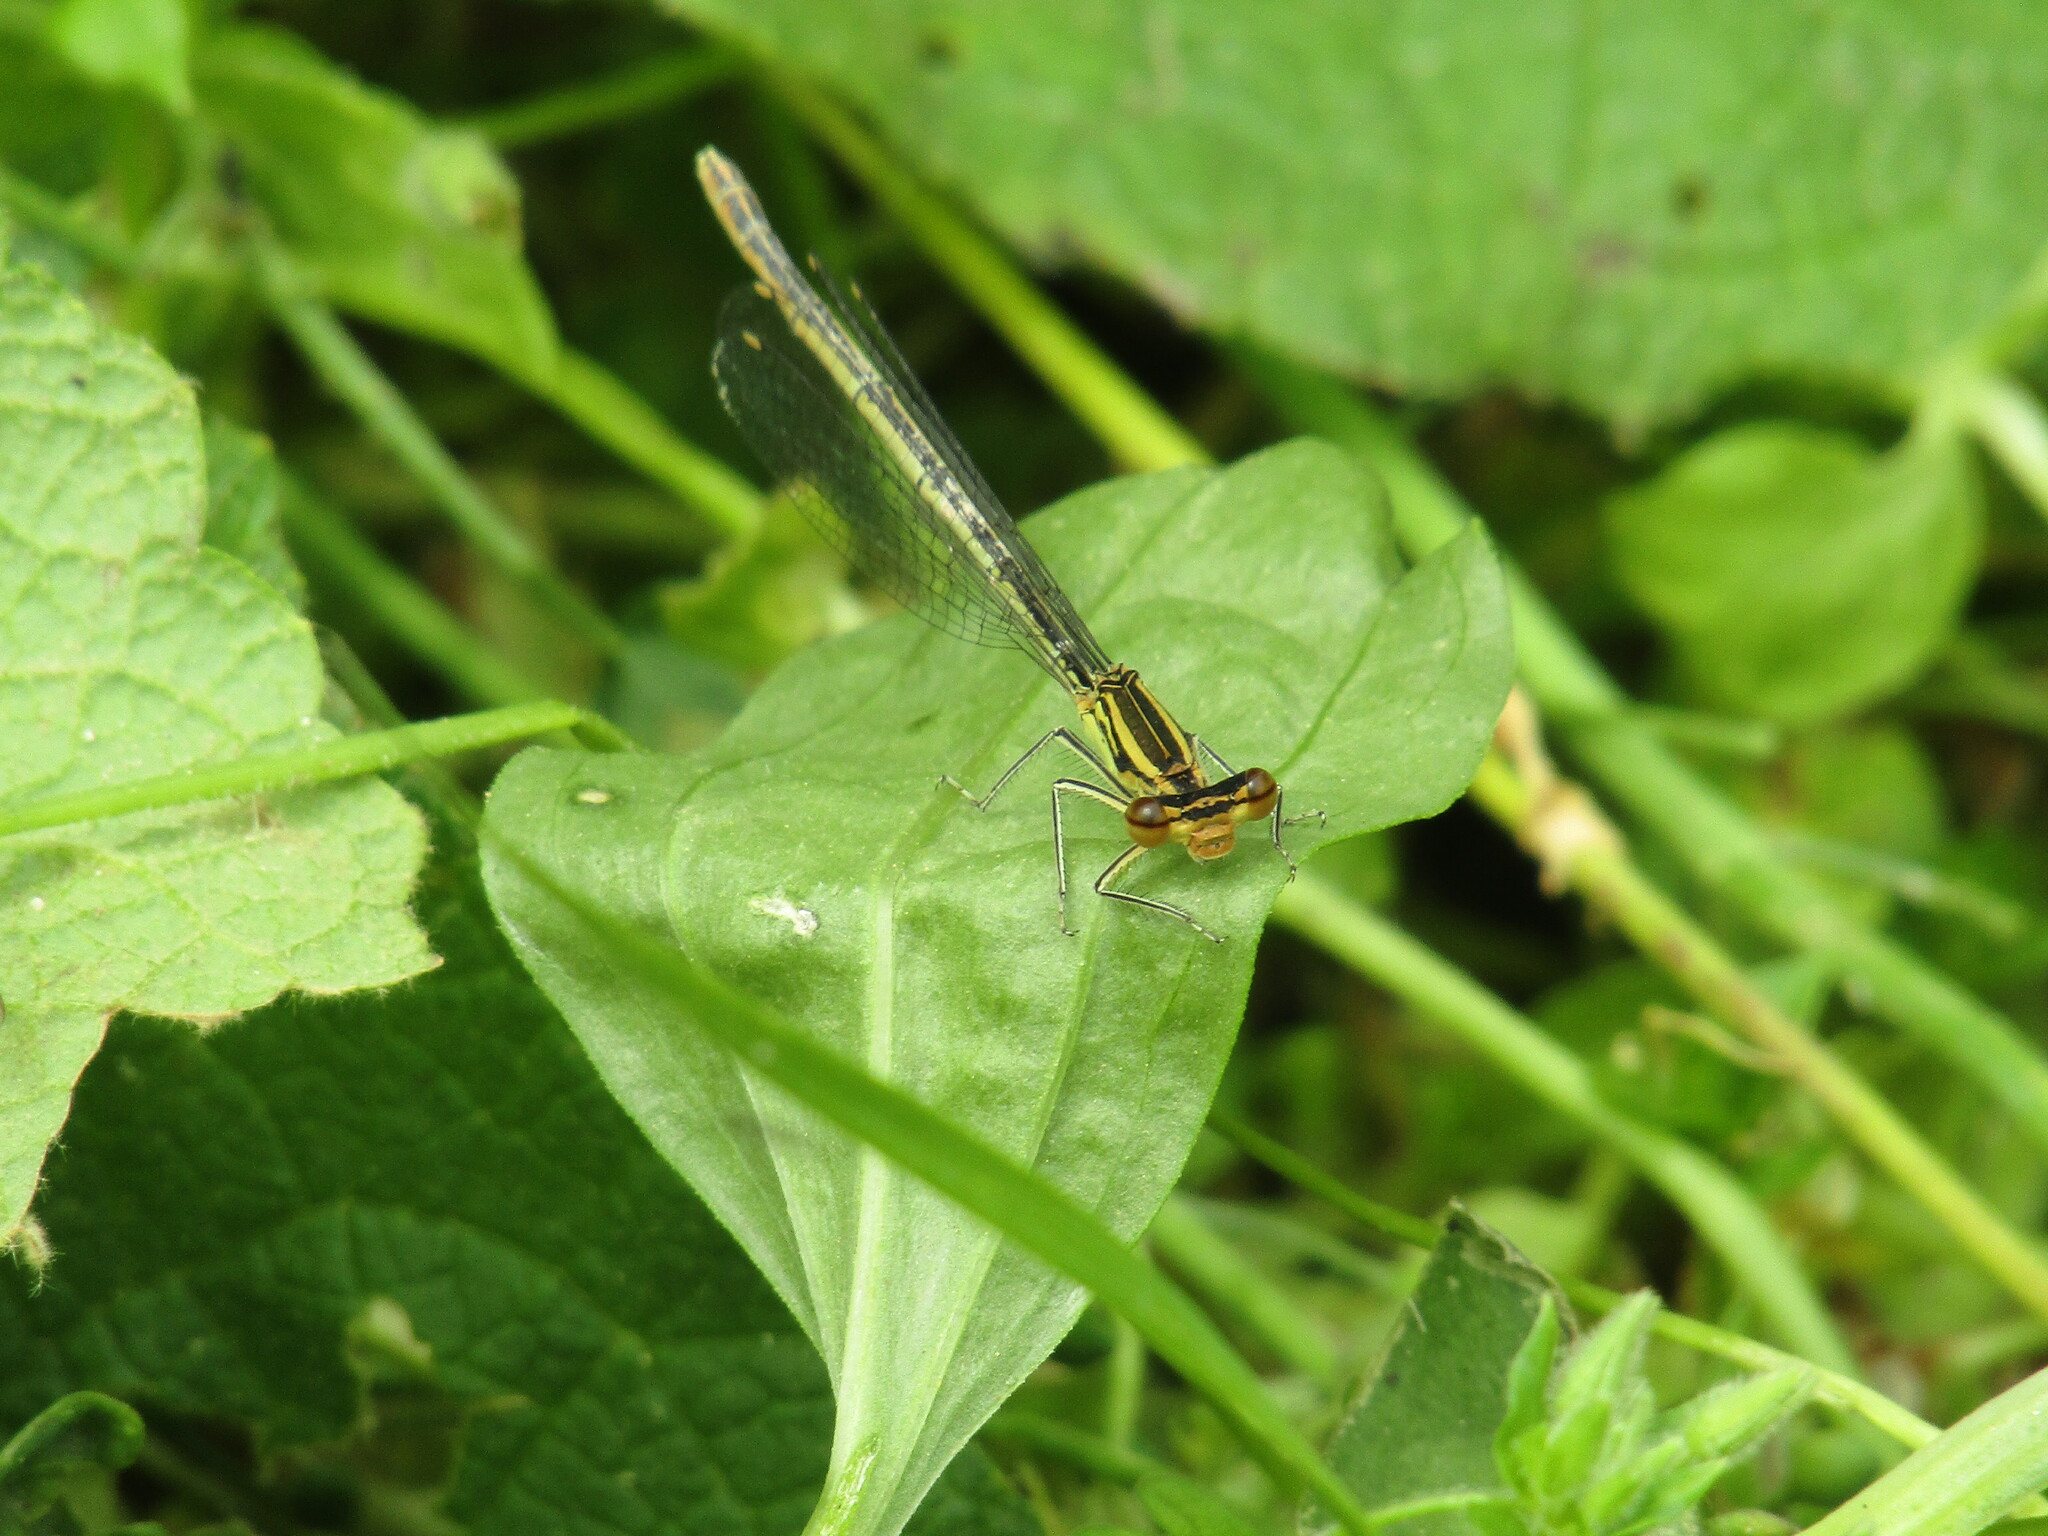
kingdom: Animalia
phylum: Arthropoda
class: Insecta
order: Odonata
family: Platycnemididae
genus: Platycnemis
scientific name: Platycnemis pennipes
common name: White-legged damselfly
